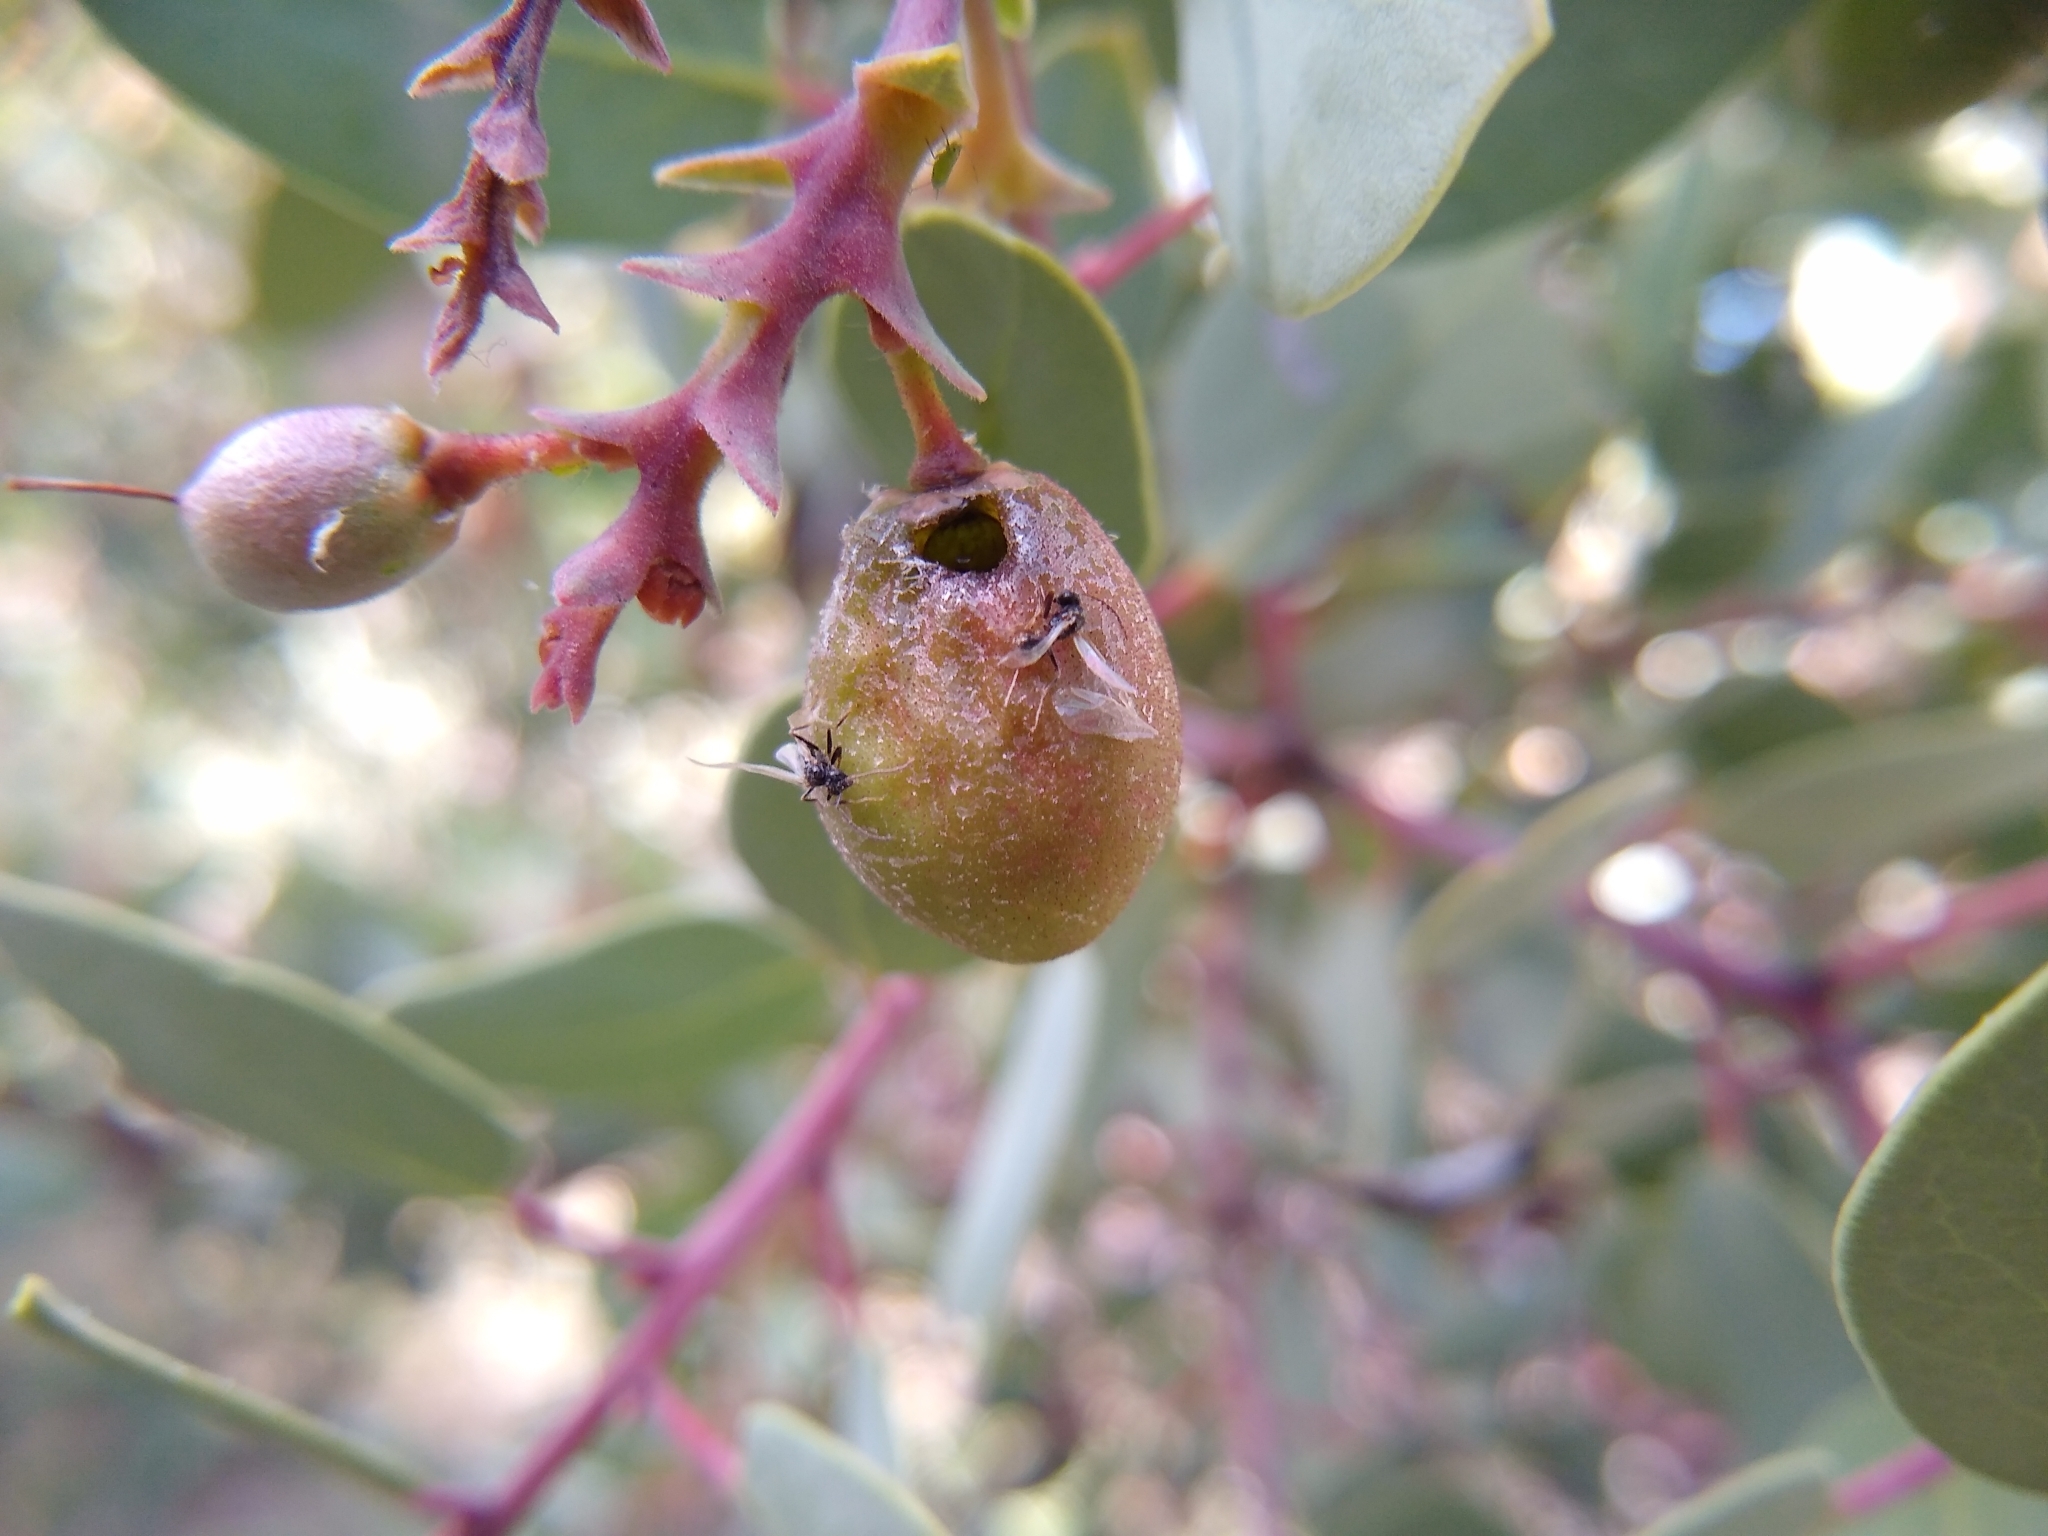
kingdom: Plantae
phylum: Tracheophyta
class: Magnoliopsida
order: Ericales
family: Ericaceae
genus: Arctostaphylos
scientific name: Arctostaphylos glauca
